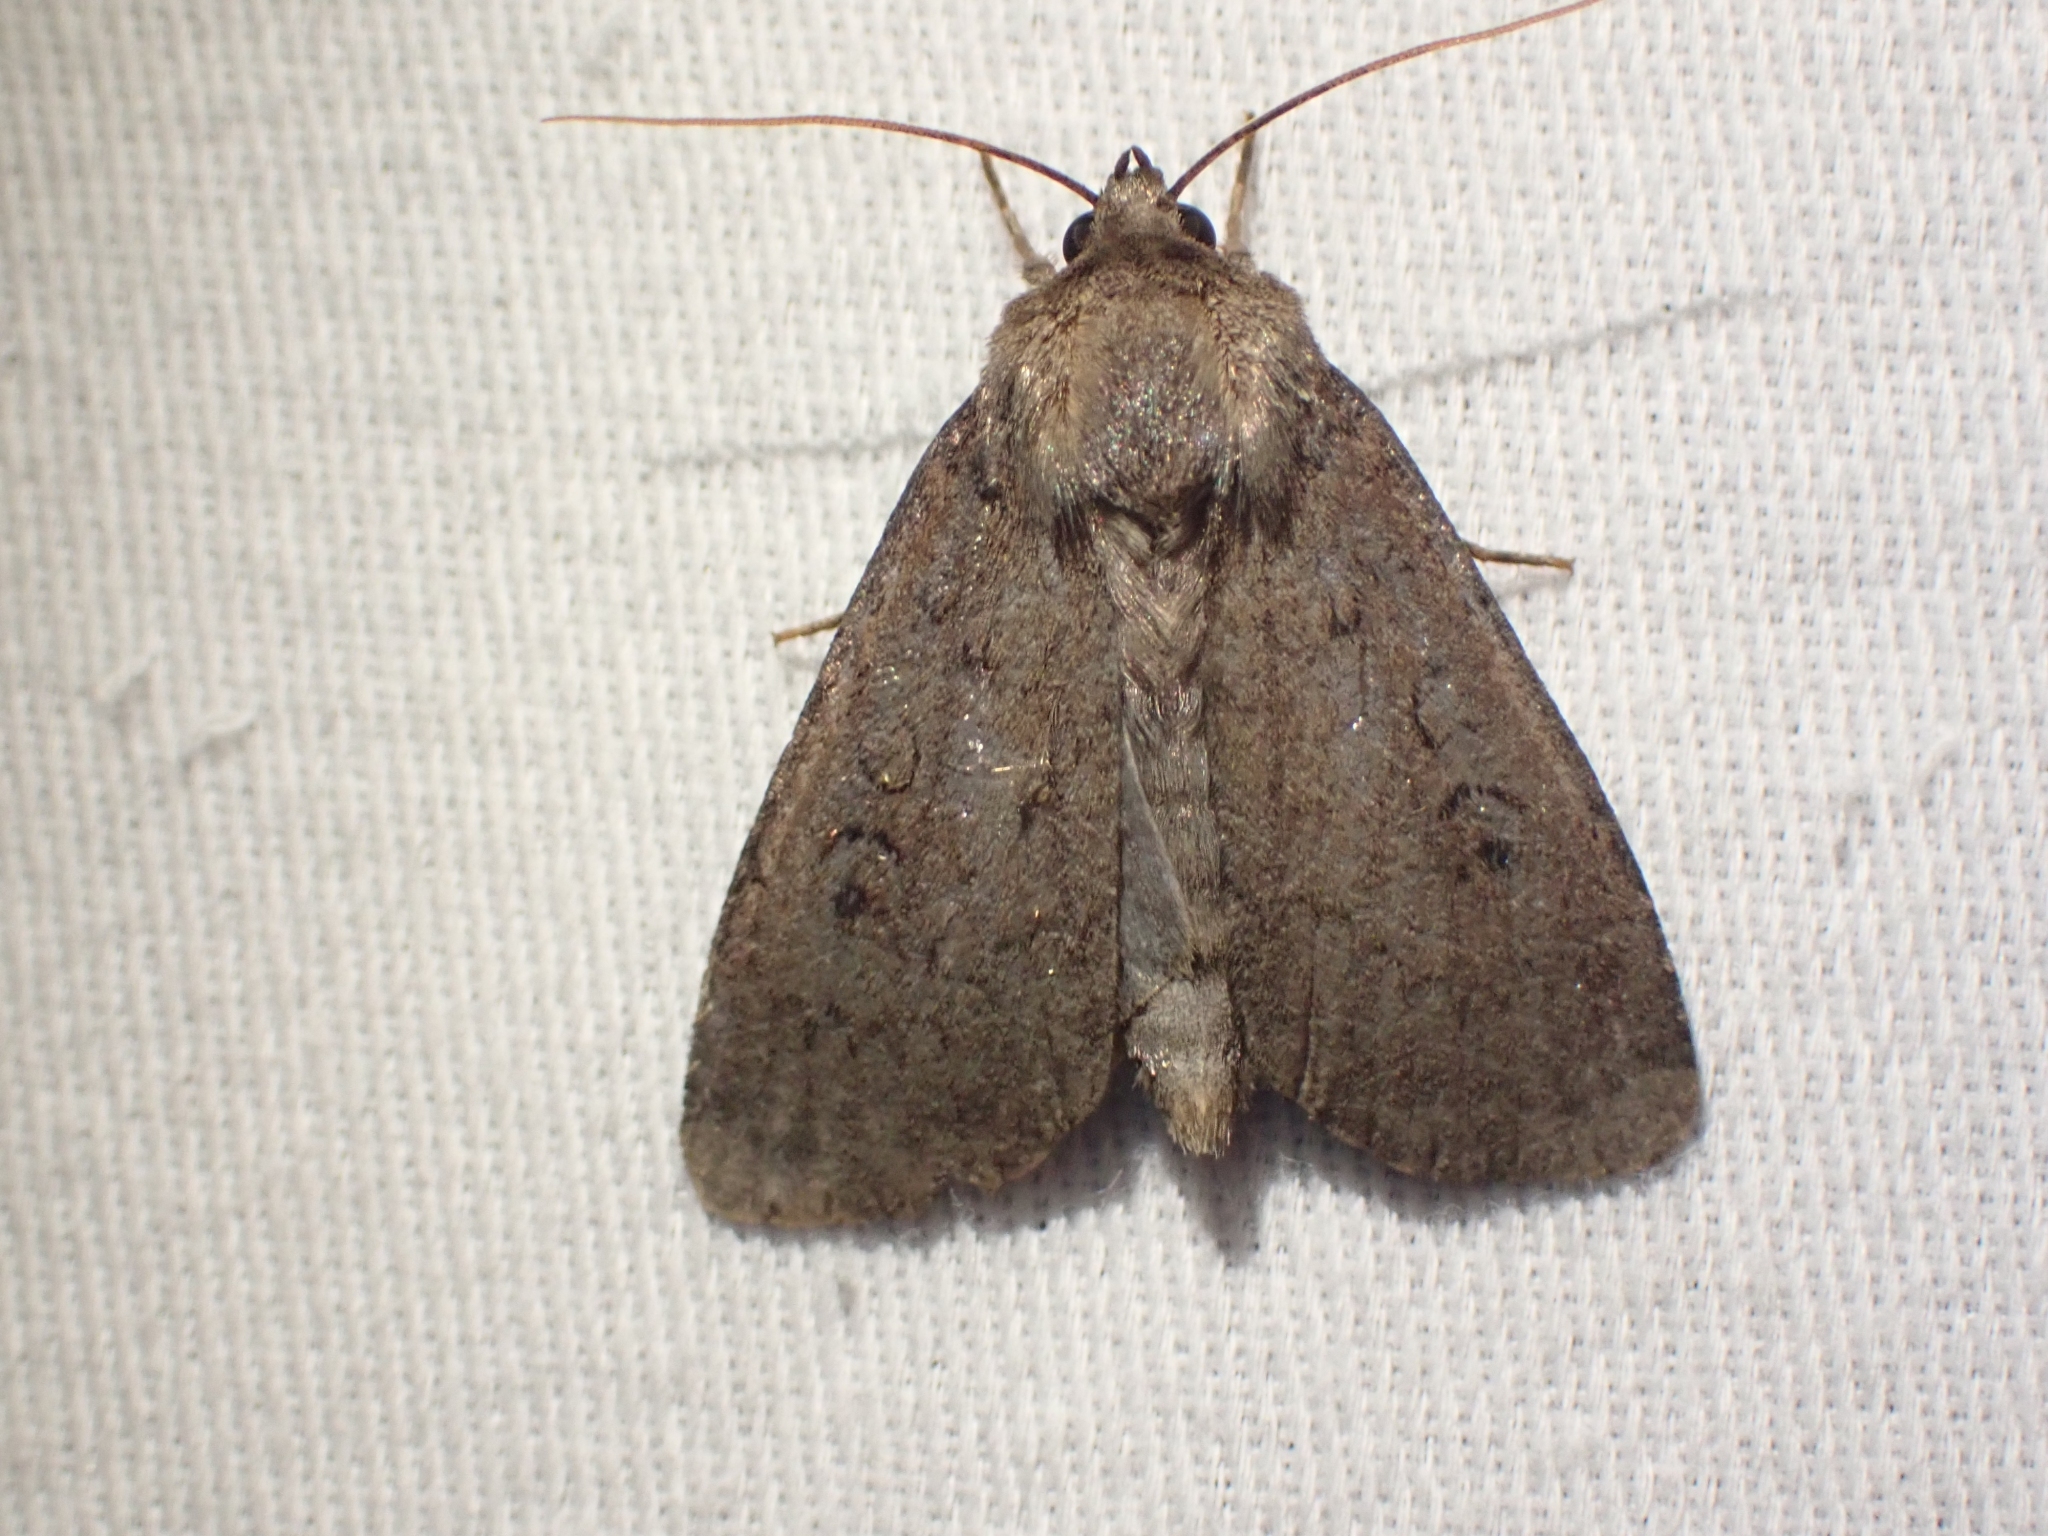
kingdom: Animalia
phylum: Arthropoda
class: Insecta
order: Lepidoptera
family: Noctuidae
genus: Graphiphora
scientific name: Graphiphora augur
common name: Double dart
